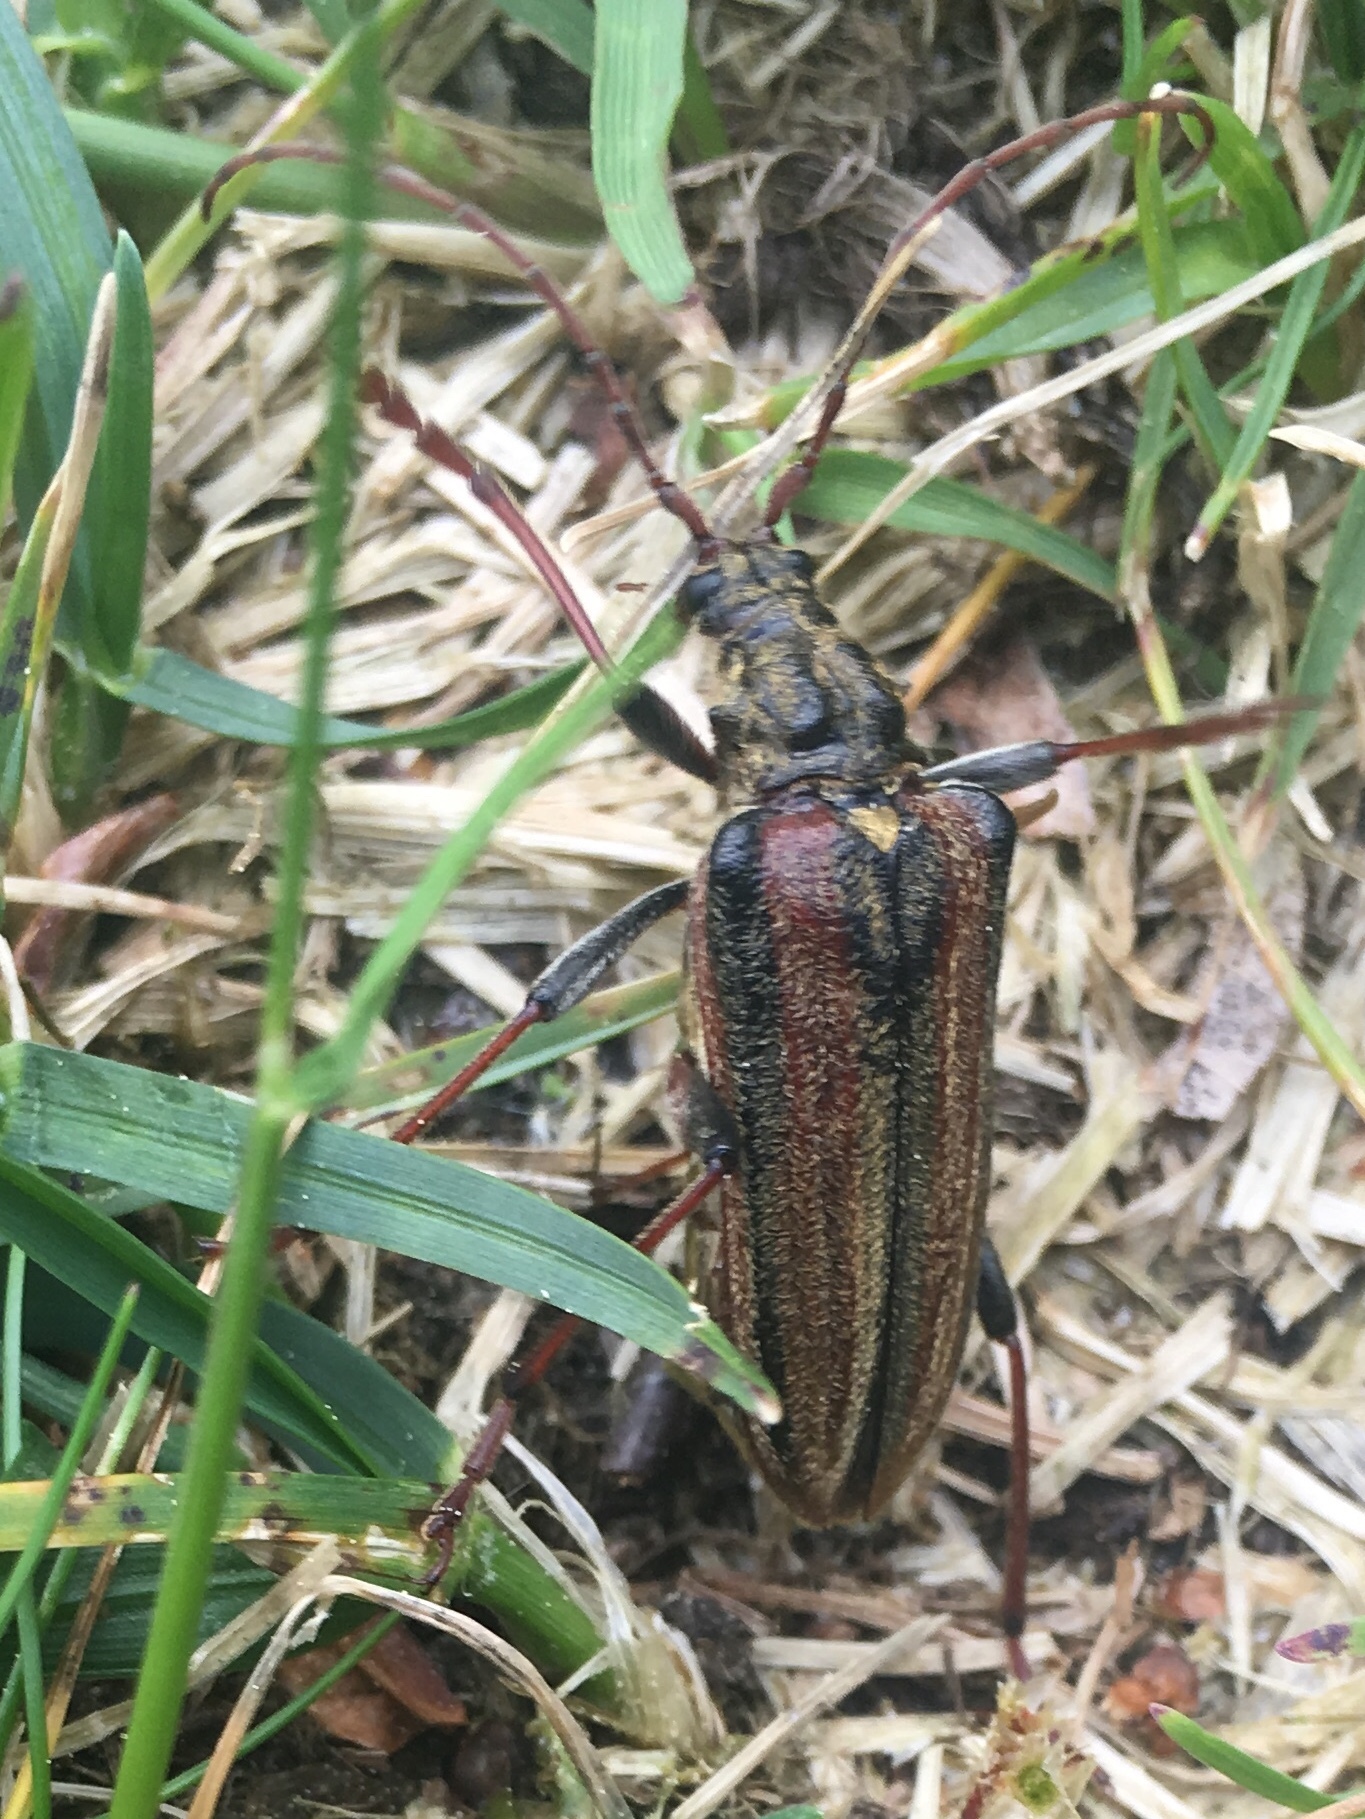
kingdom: Animalia
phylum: Arthropoda
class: Insecta
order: Coleoptera
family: Cerambycidae
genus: Oxymirus
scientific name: Oxymirus cursor
